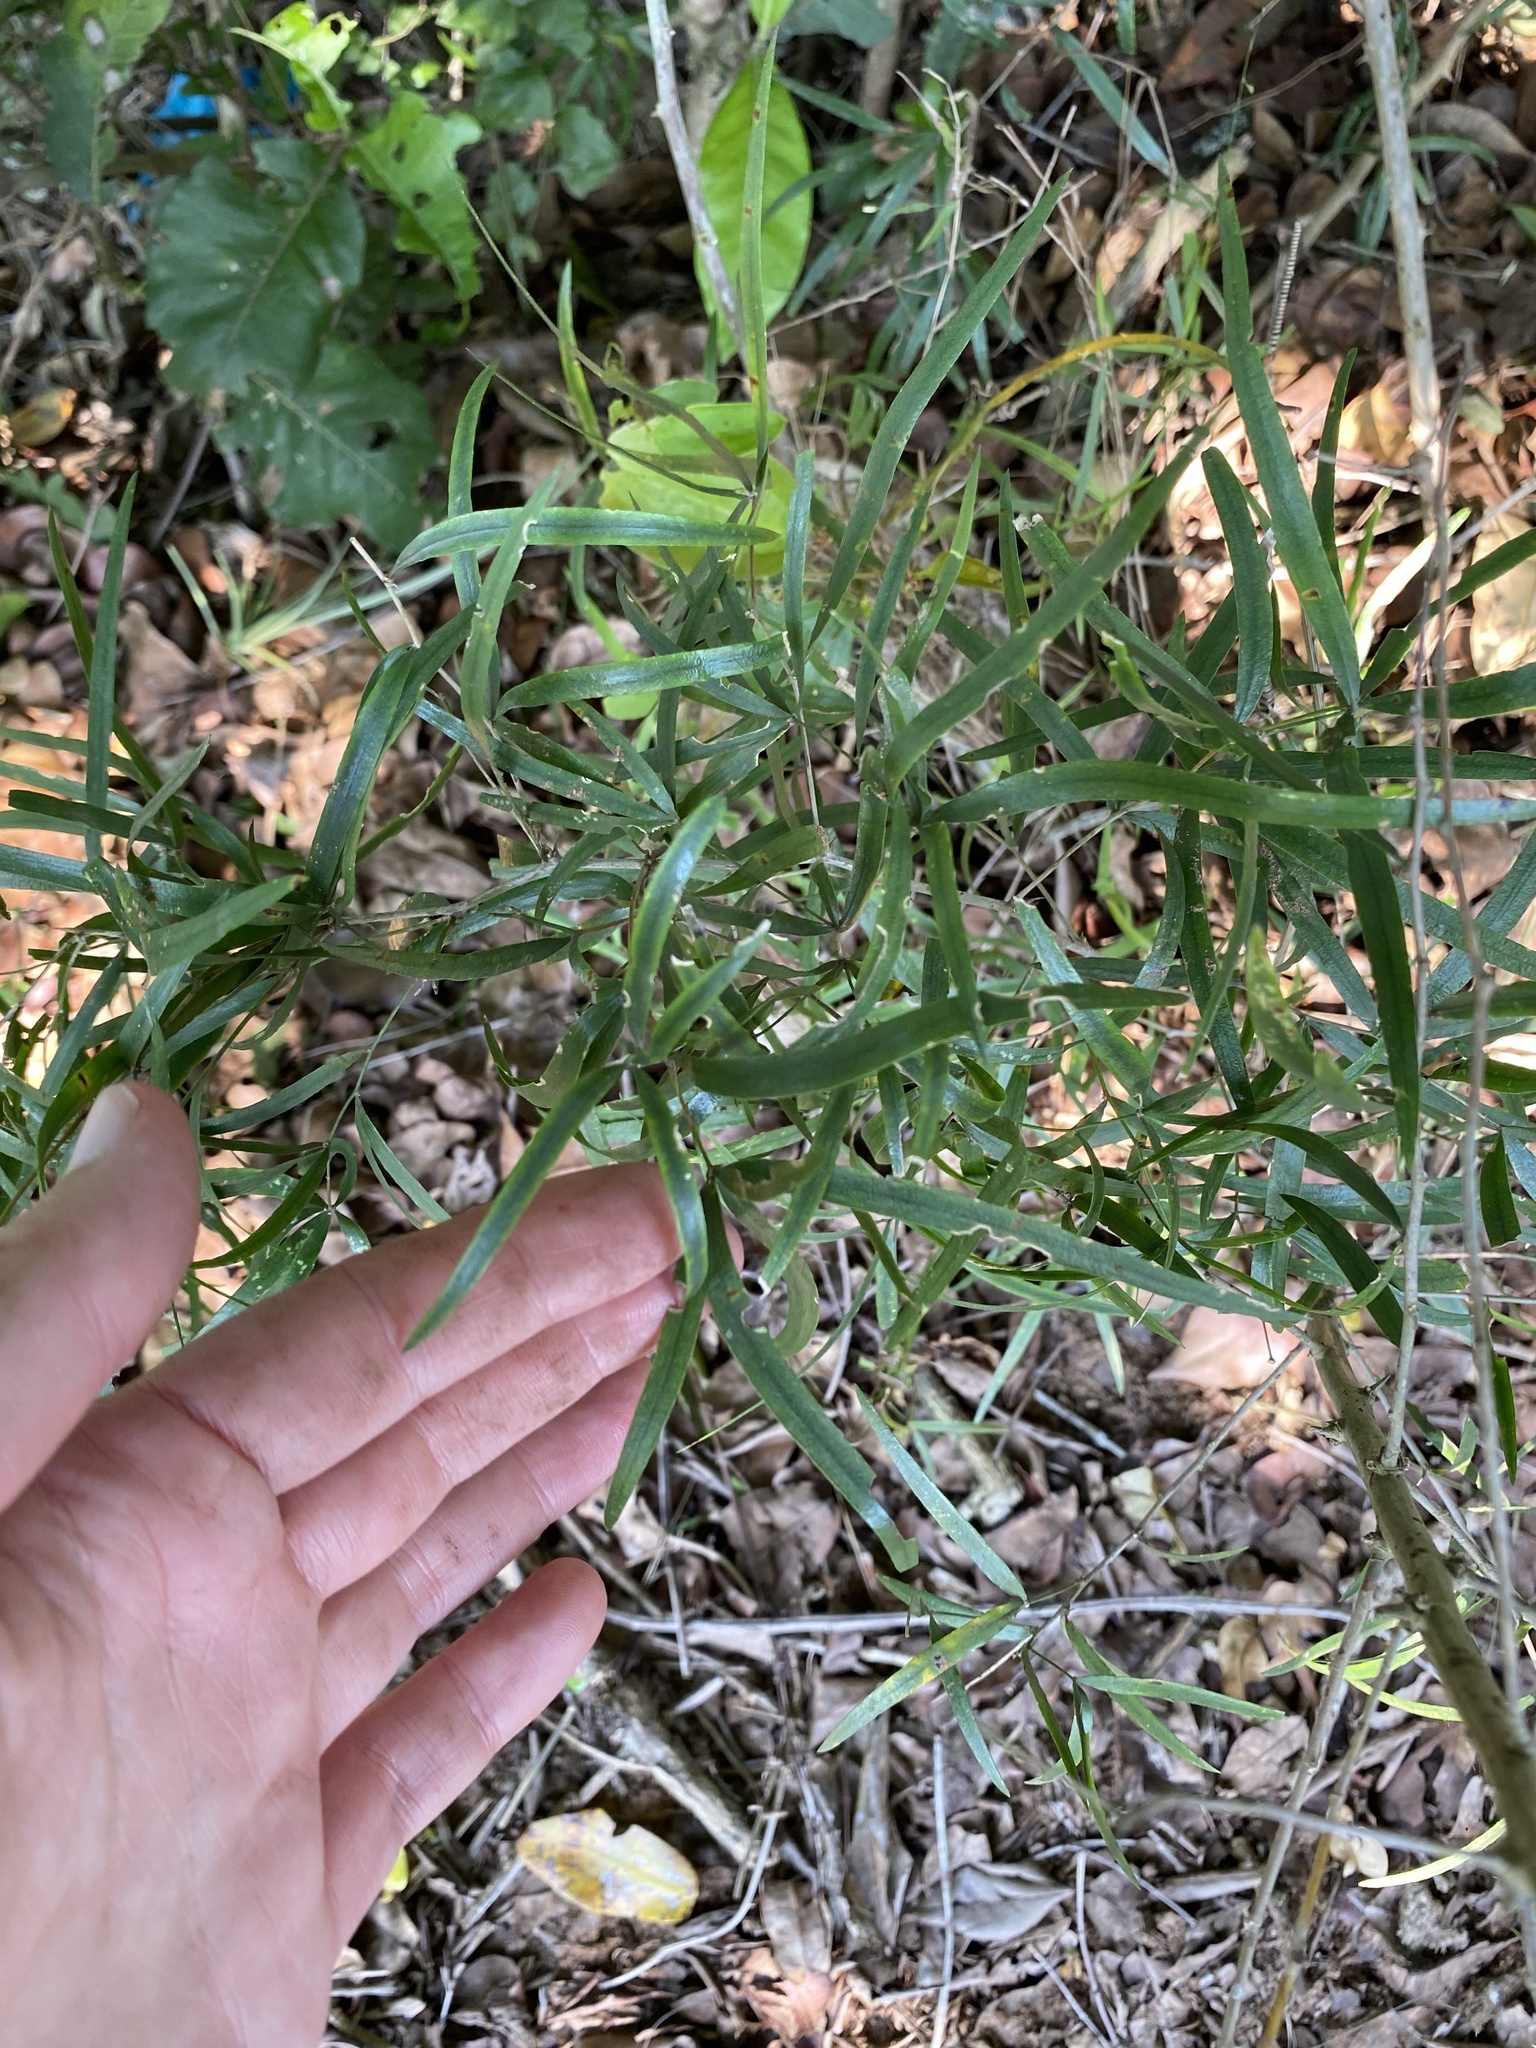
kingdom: Plantae
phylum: Tracheophyta
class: Liliopsida
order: Asparagales
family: Asparagaceae
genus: Asparagus
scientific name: Asparagus falcatus
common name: Asparagus
